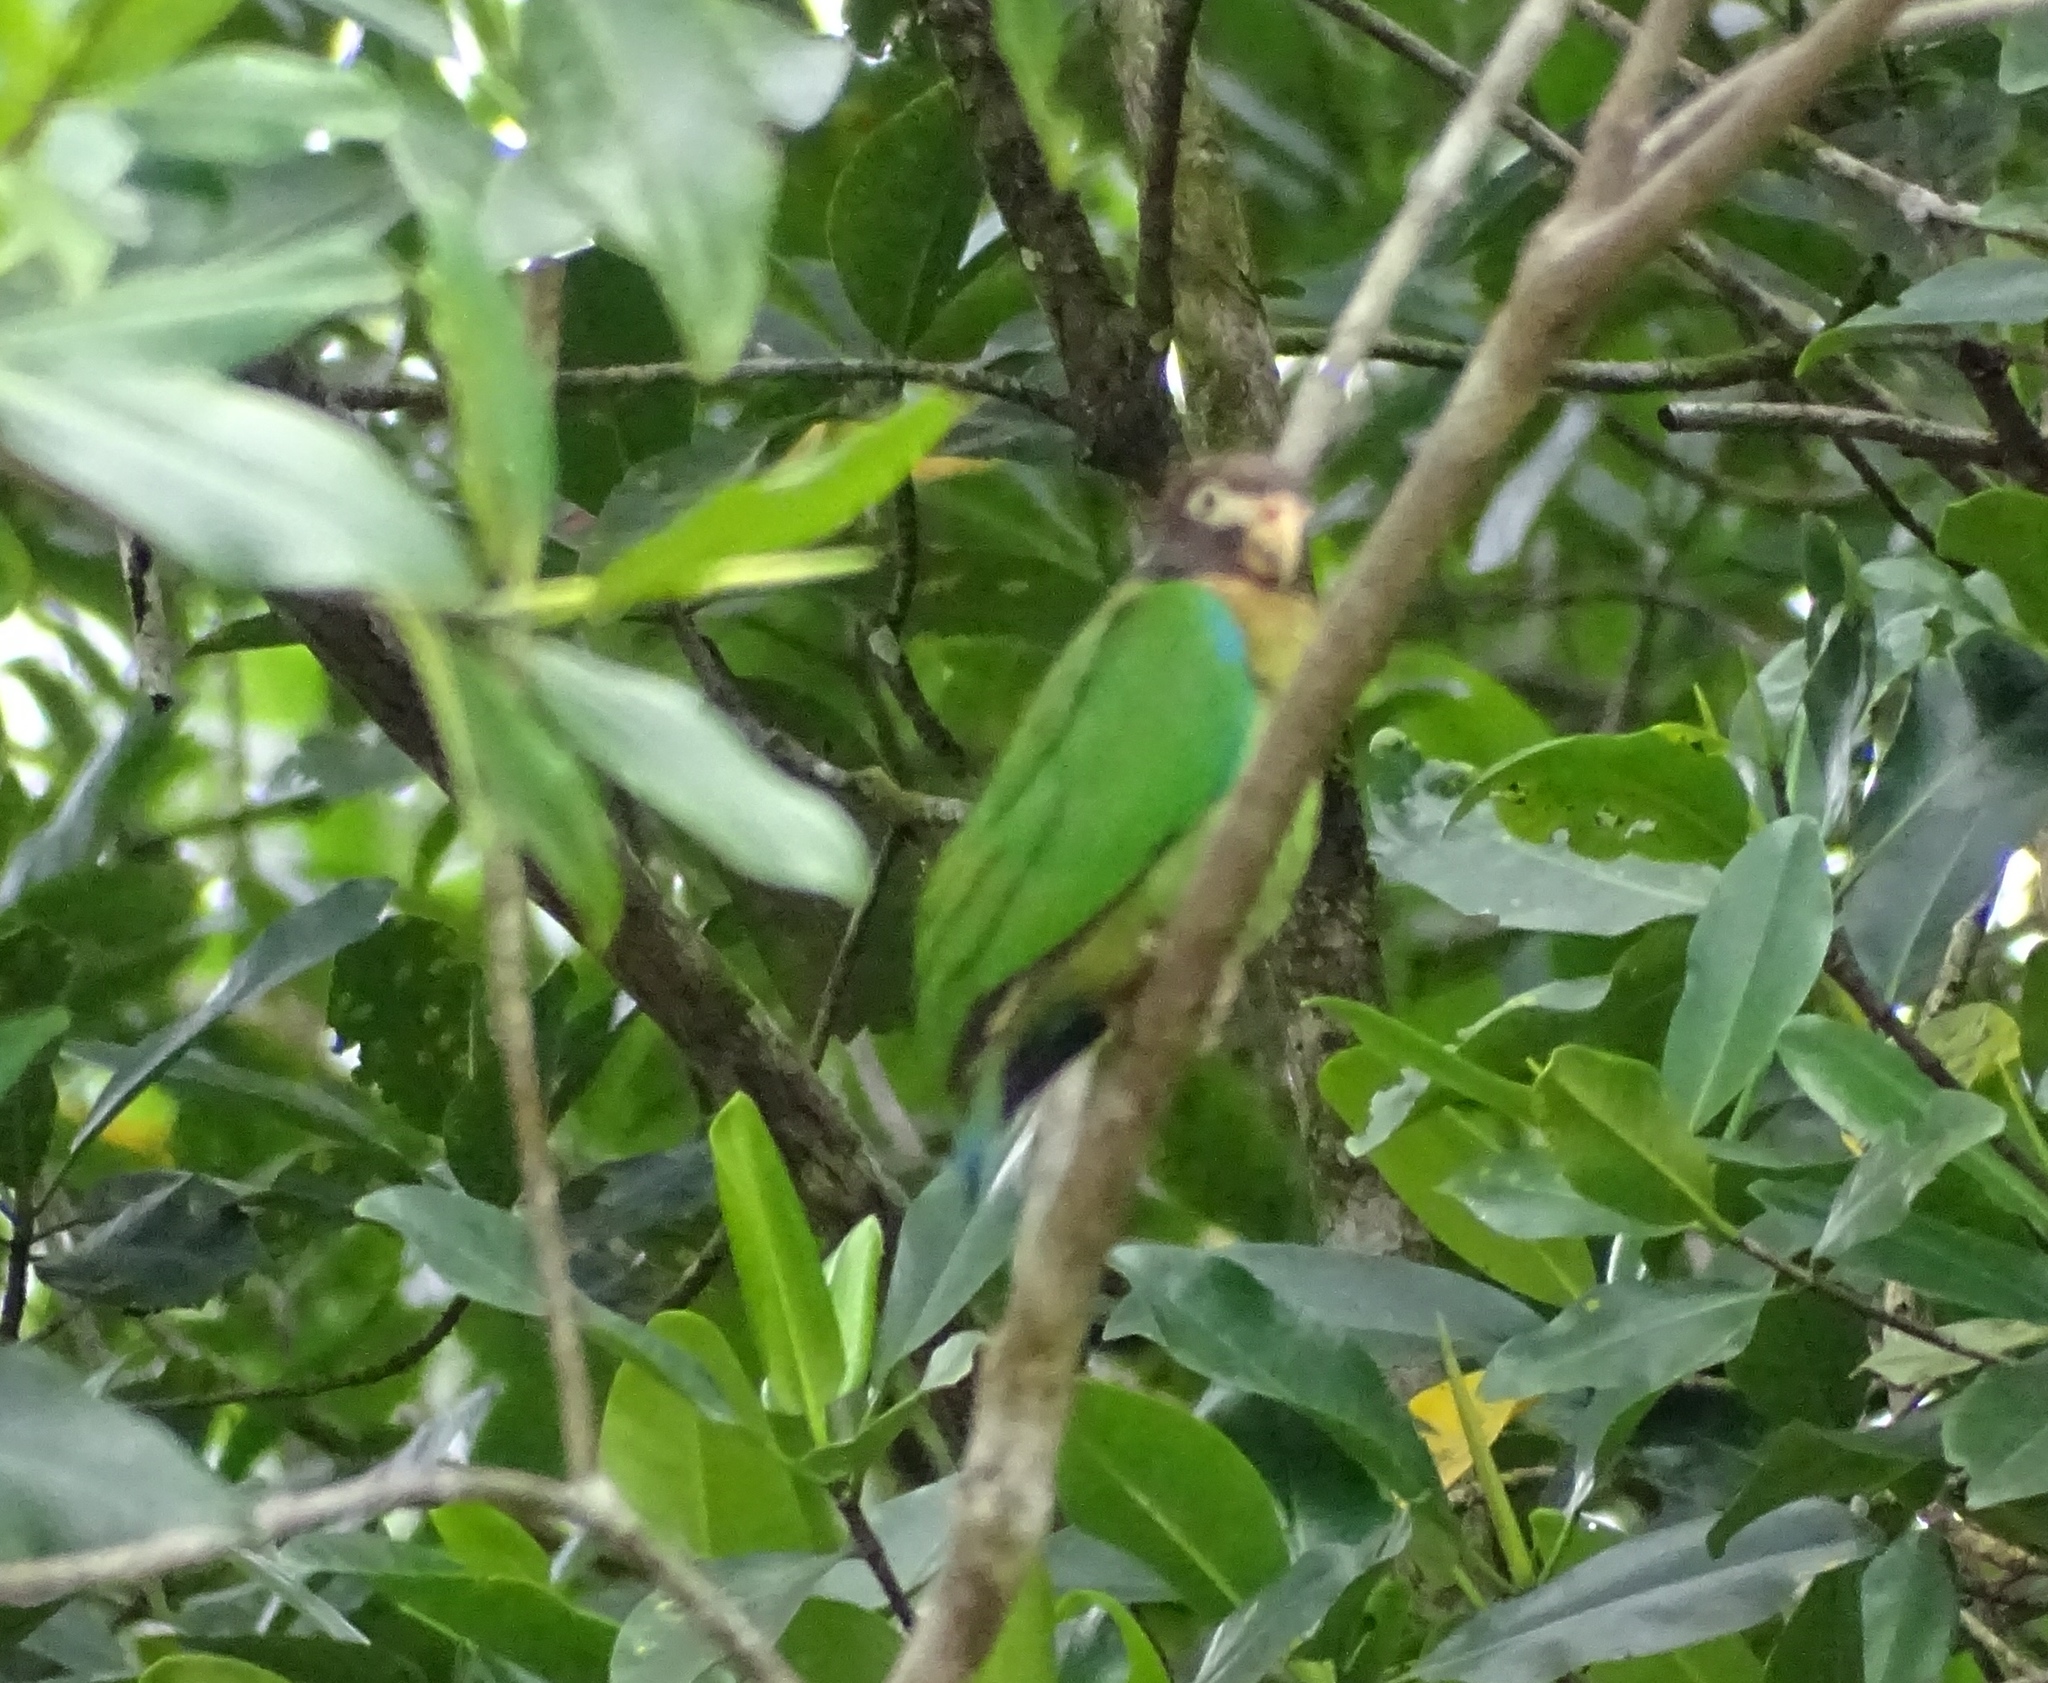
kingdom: Animalia
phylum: Chordata
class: Aves
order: Psittaciformes
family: Psittacidae
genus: Pionopsitta
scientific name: Pionopsitta haematotis
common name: Brown-hooded parrot
